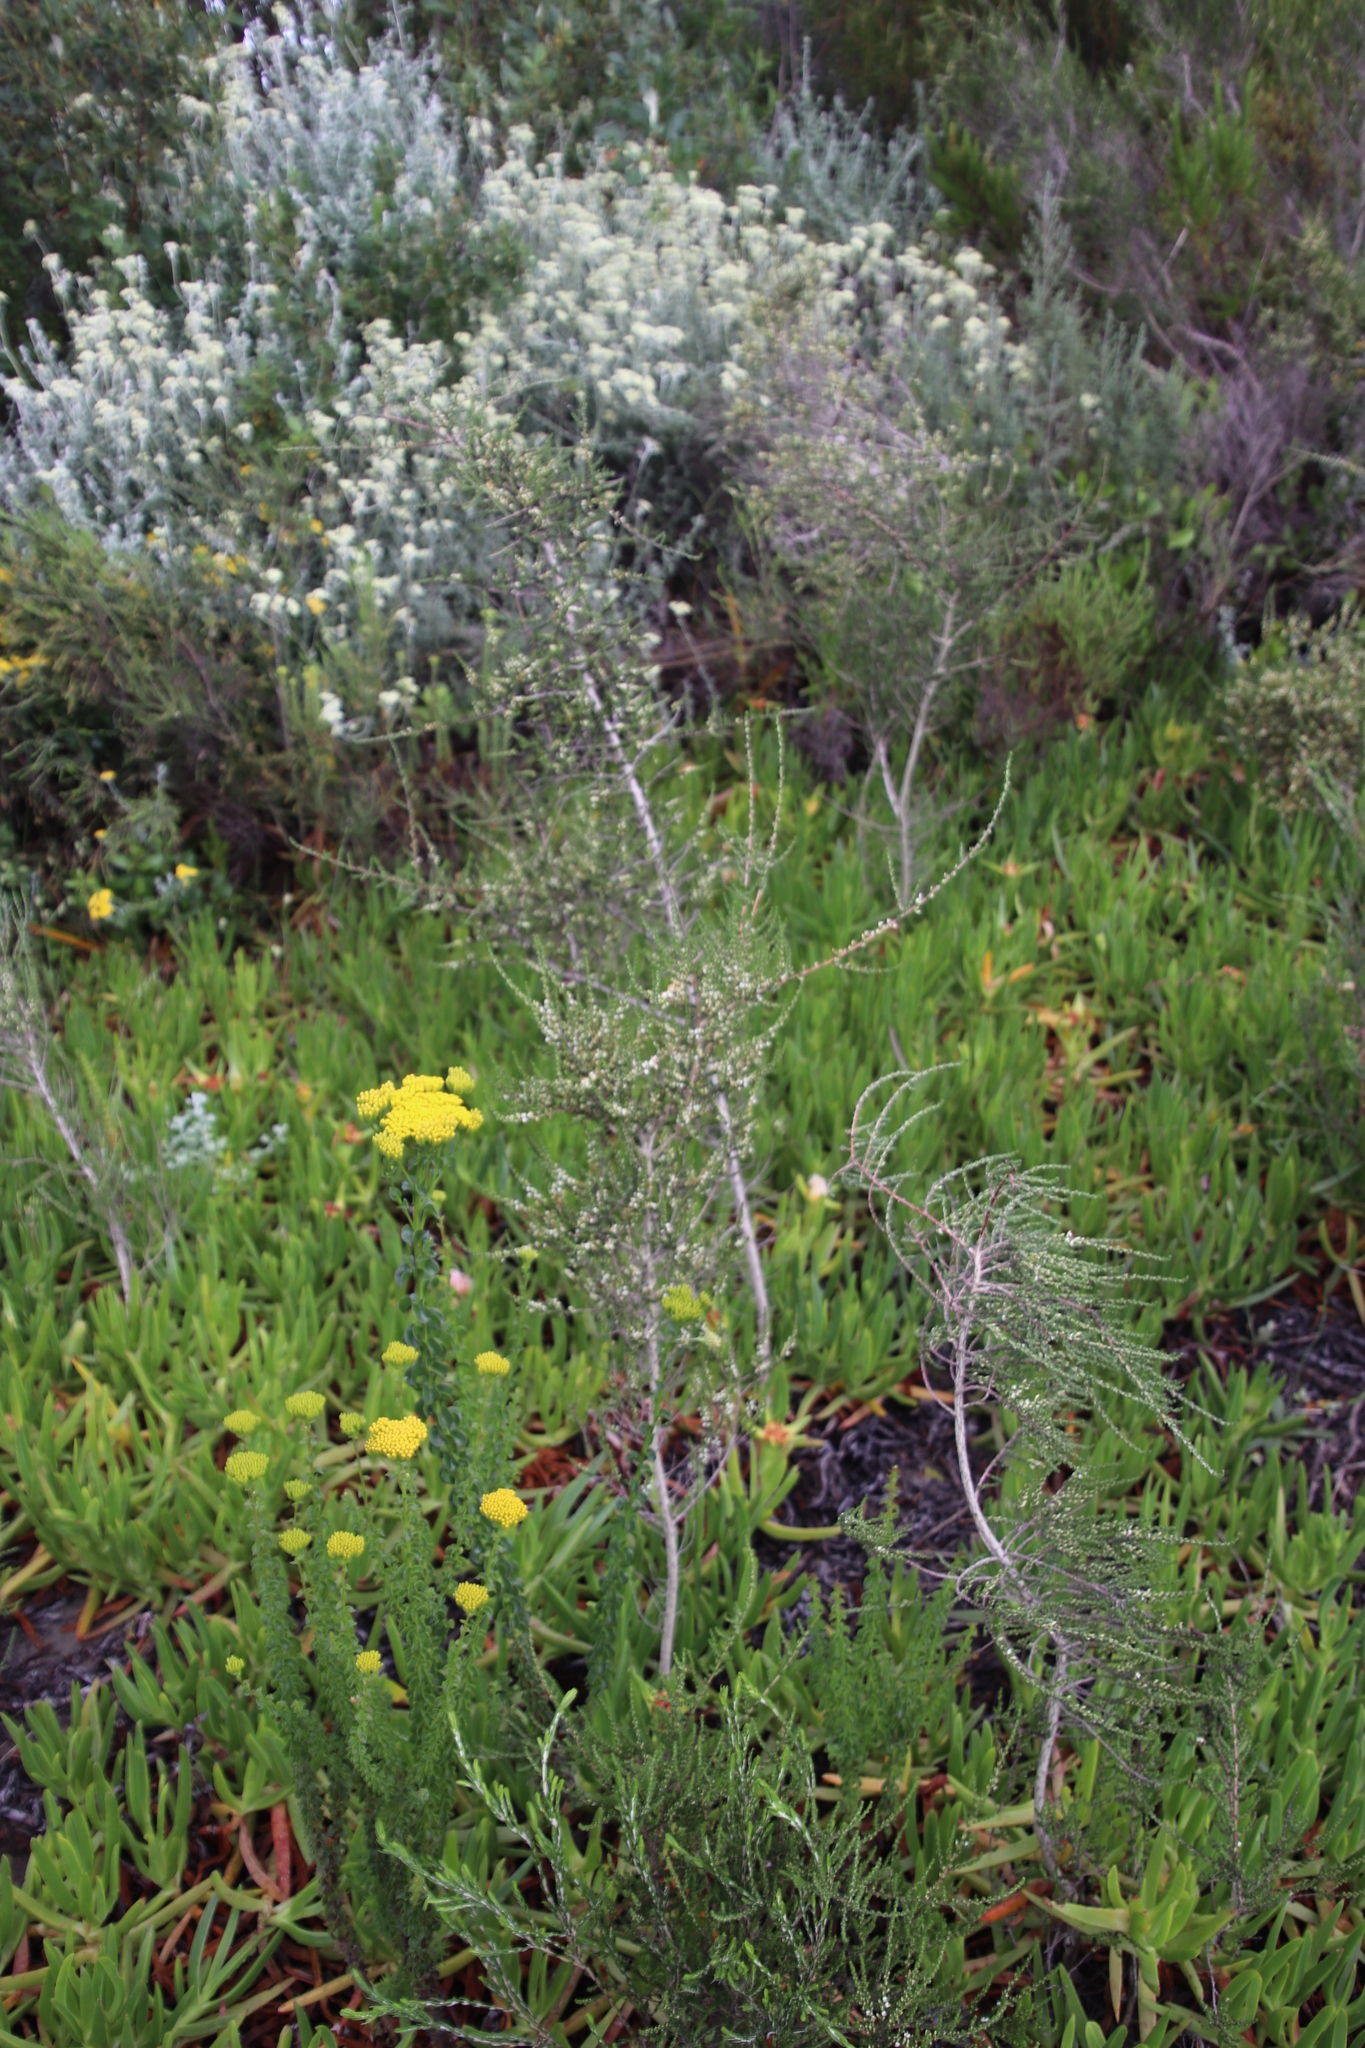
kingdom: Plantae
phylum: Tracheophyta
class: Magnoliopsida
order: Fabales
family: Fabaceae
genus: Aspalathus
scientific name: Aspalathus hispida
